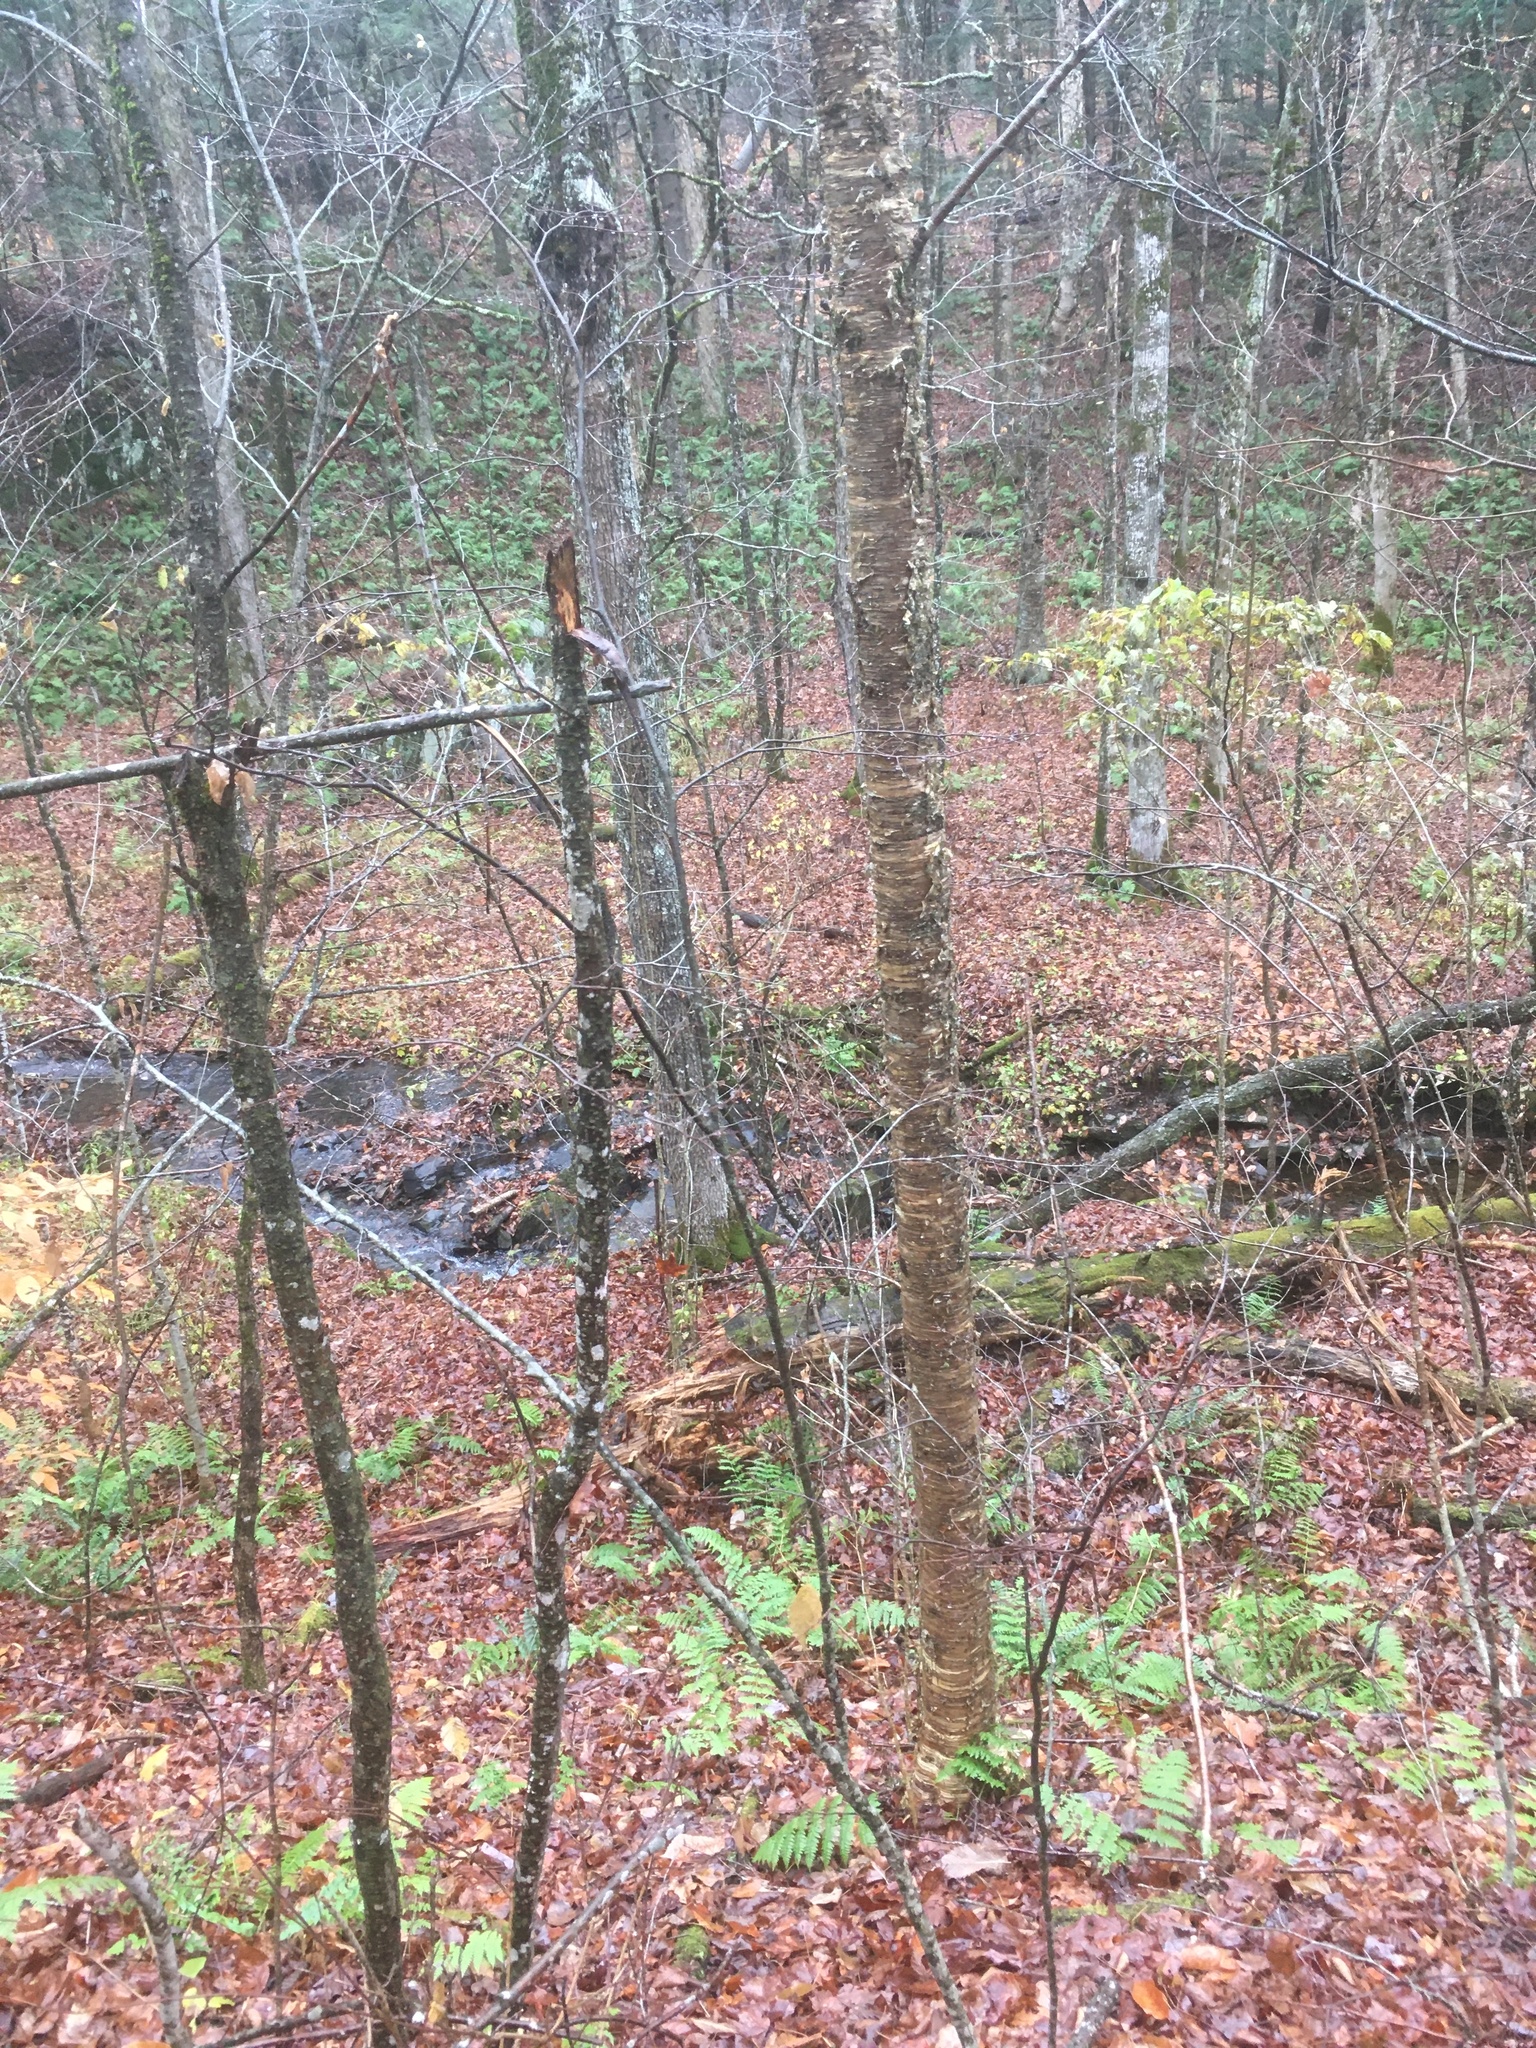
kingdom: Plantae
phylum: Tracheophyta
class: Magnoliopsida
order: Fagales
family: Betulaceae
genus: Betula
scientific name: Betula alleghaniensis
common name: Yellow birch
